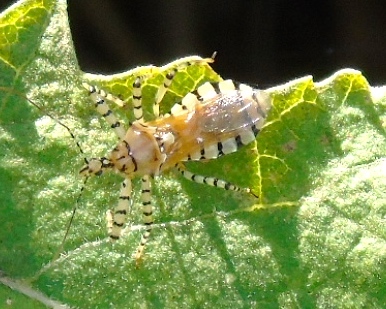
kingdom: Animalia
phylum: Arthropoda
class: Insecta
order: Hemiptera
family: Reduviidae
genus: Pselliopus
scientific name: Pselliopus
